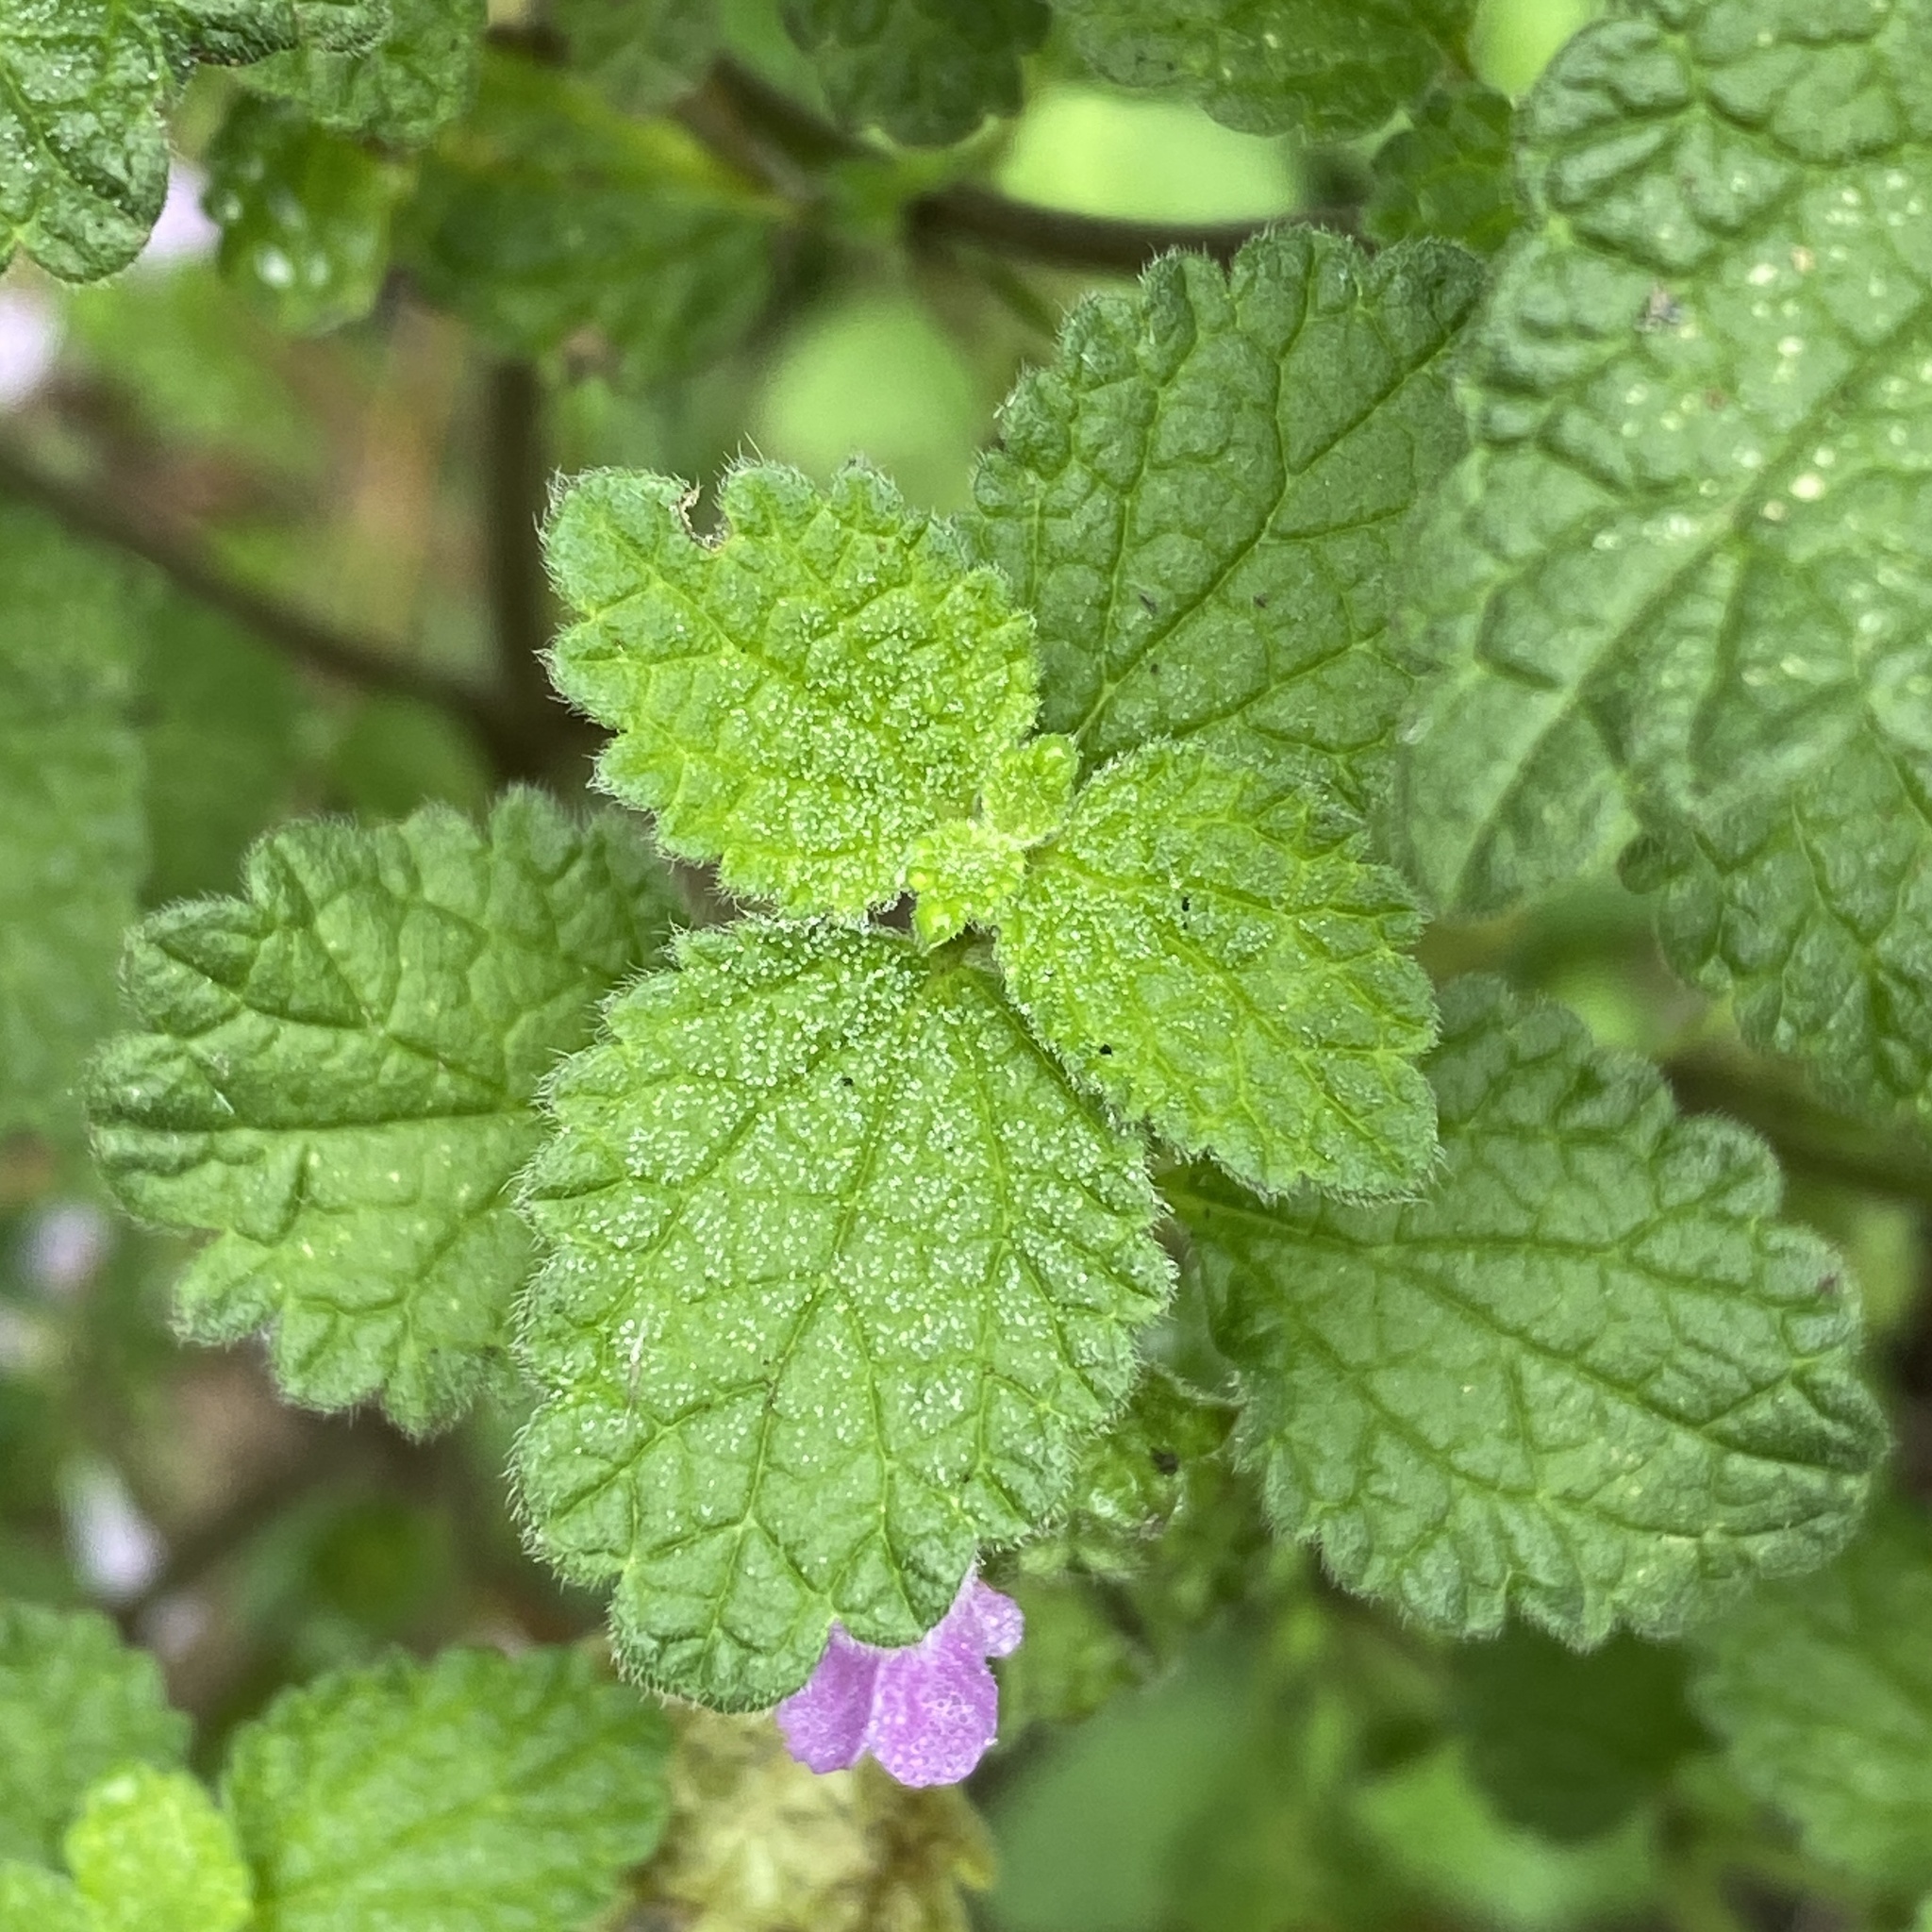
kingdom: Plantae
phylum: Tracheophyta
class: Magnoliopsida
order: Lamiales
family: Lamiaceae
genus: Ballota
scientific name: Ballota nigra
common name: Black horehound
